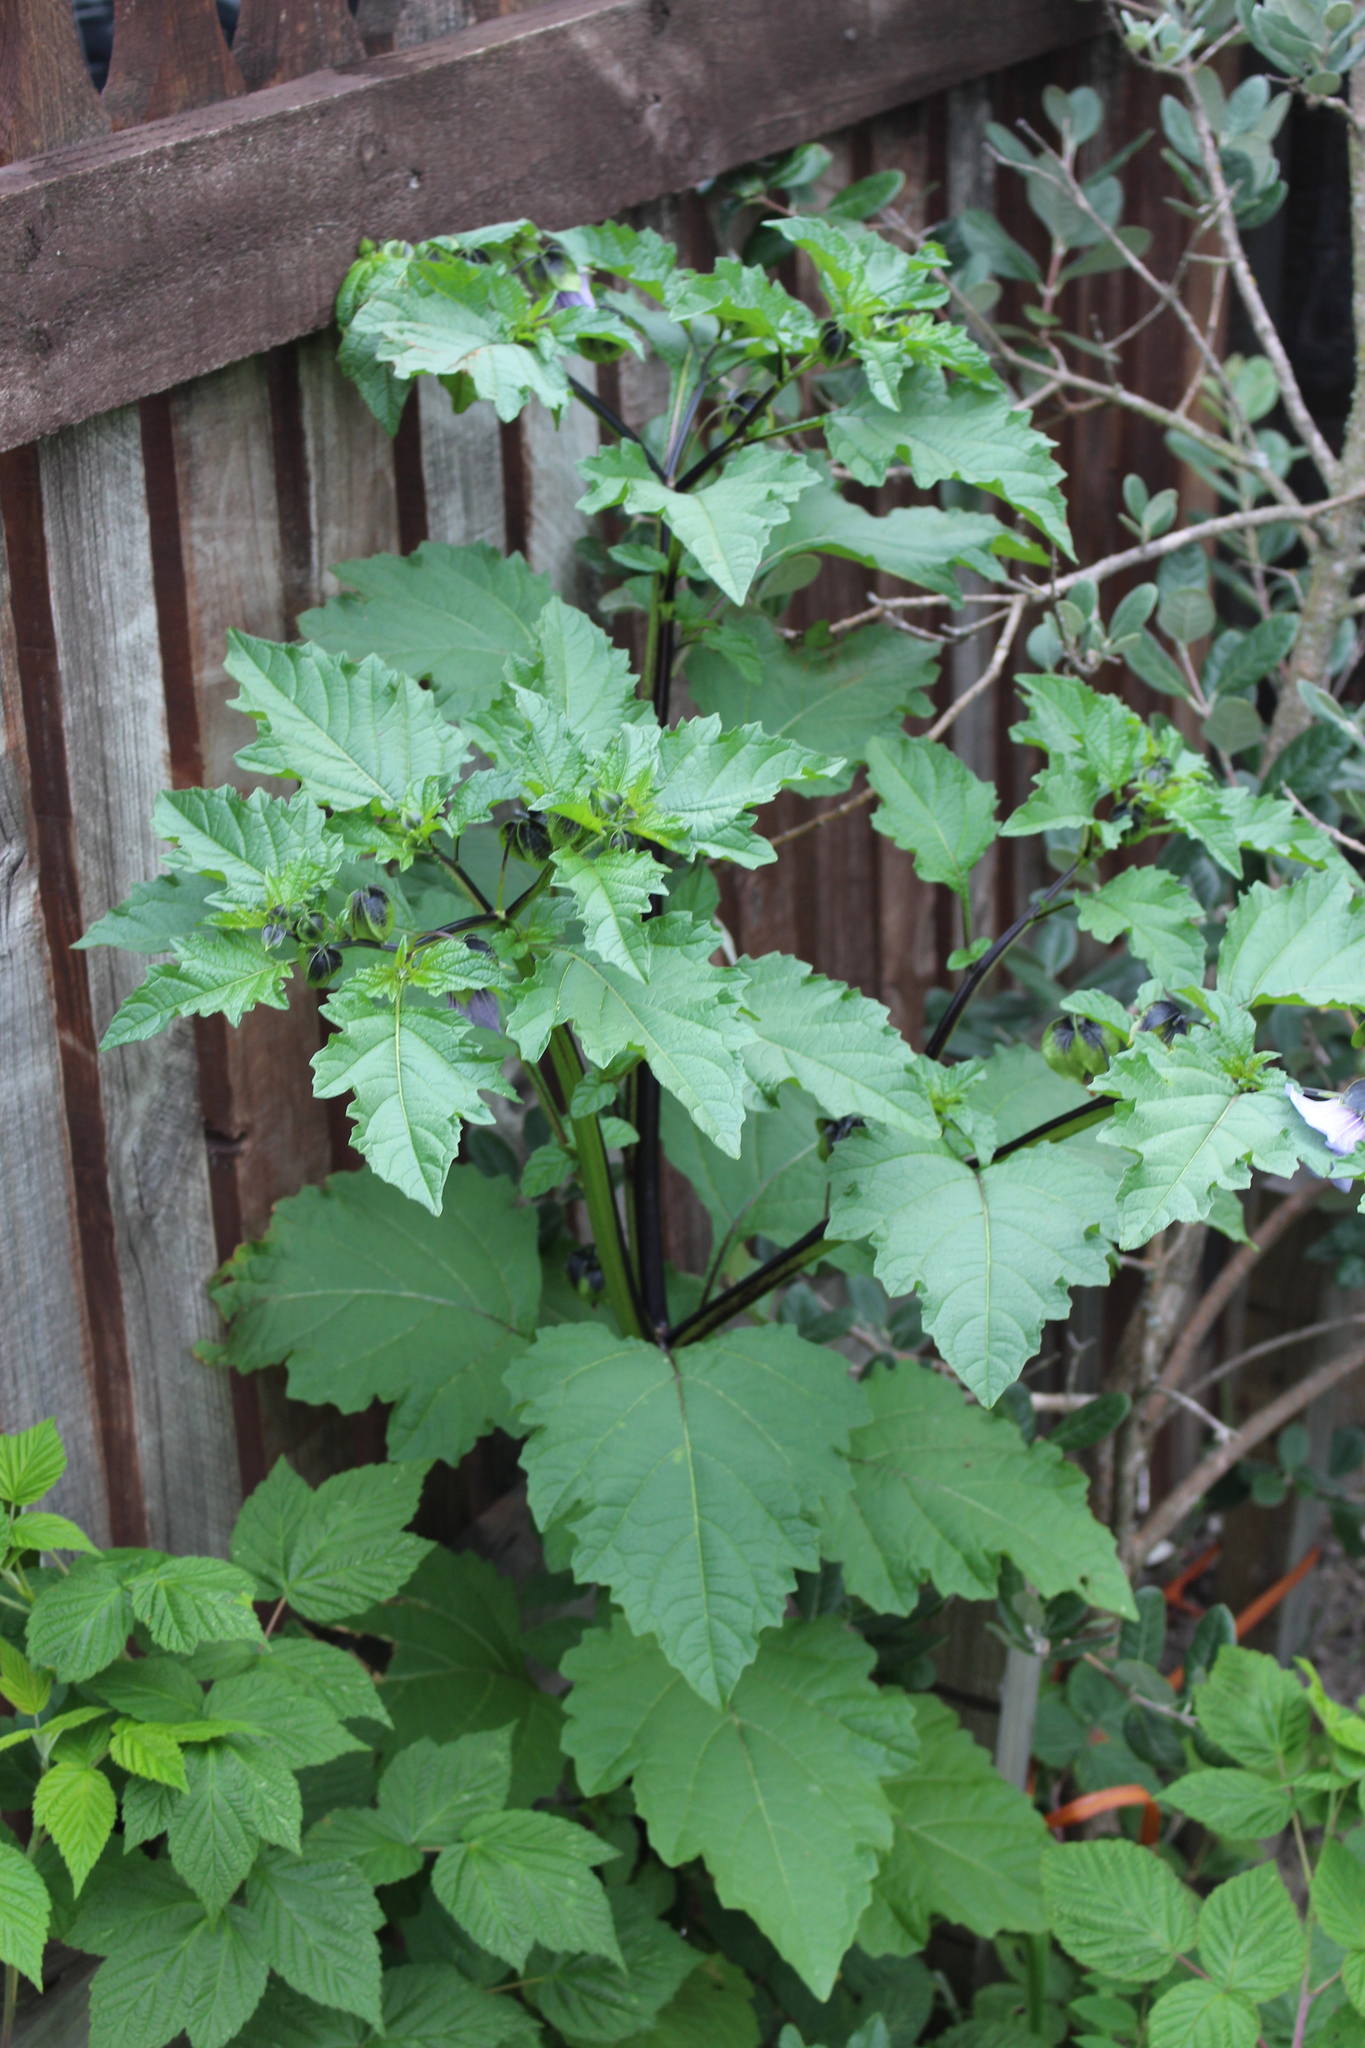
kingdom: Plantae
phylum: Tracheophyta
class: Magnoliopsida
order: Solanales
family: Solanaceae
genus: Nicandra
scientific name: Nicandra physalodes
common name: Apple-of-peru
